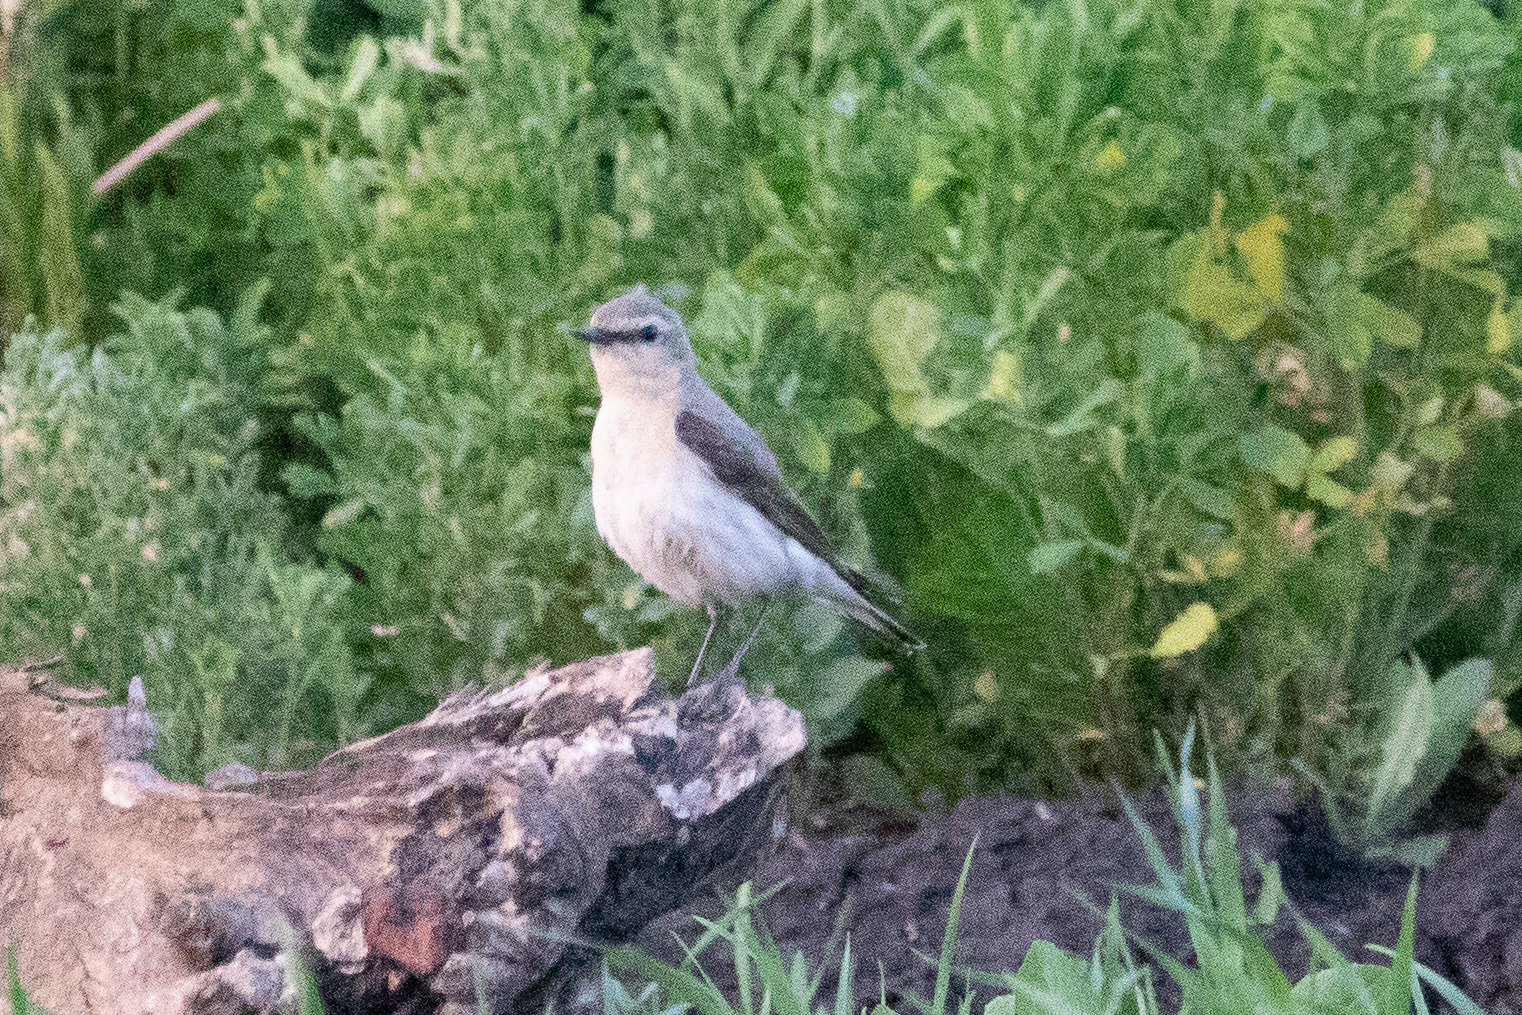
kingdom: Animalia
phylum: Chordata
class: Aves
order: Passeriformes
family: Muscicapidae
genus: Oenanthe
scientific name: Oenanthe oenanthe
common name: Northern wheatear
